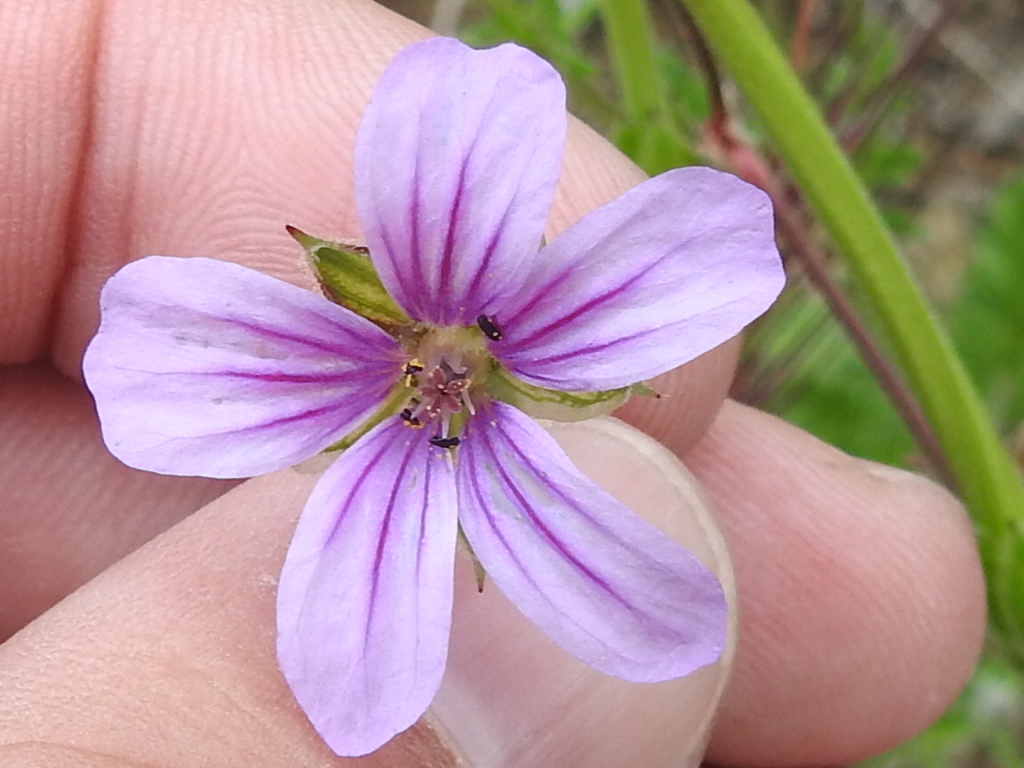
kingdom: Plantae
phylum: Tracheophyta
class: Magnoliopsida
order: Geraniales
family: Geraniaceae
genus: Erodium
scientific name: Erodium botrys
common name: Mediterranean stork's-bill
